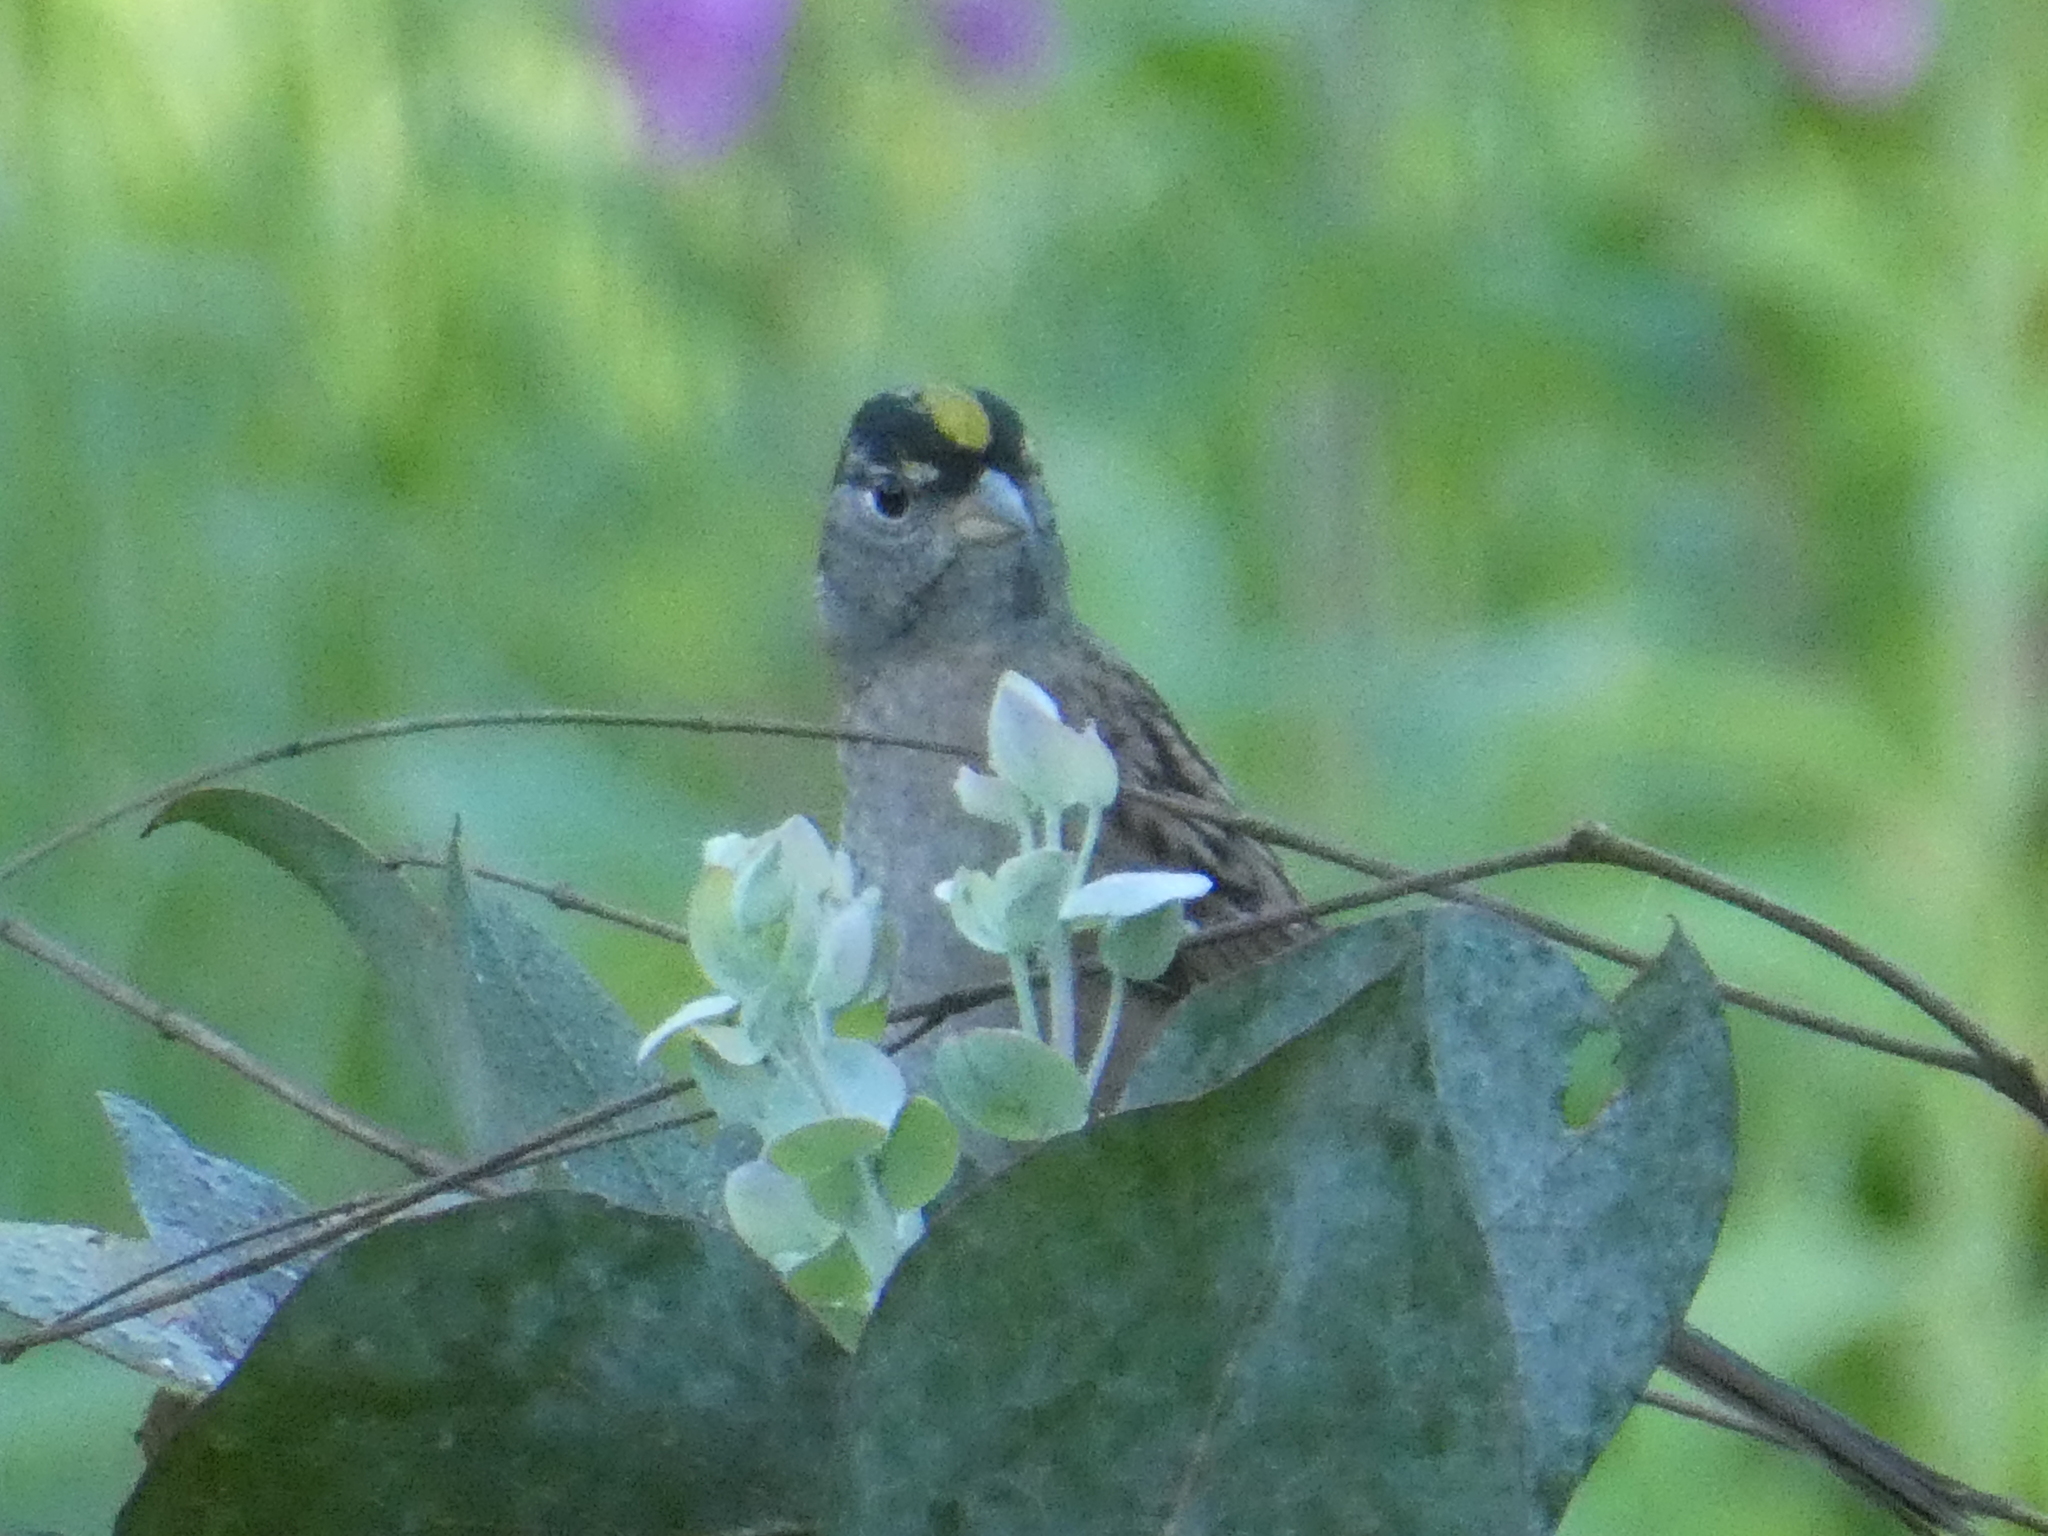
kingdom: Animalia
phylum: Chordata
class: Aves
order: Passeriformes
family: Passerellidae
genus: Zonotrichia
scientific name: Zonotrichia atricapilla
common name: Golden-crowned sparrow
